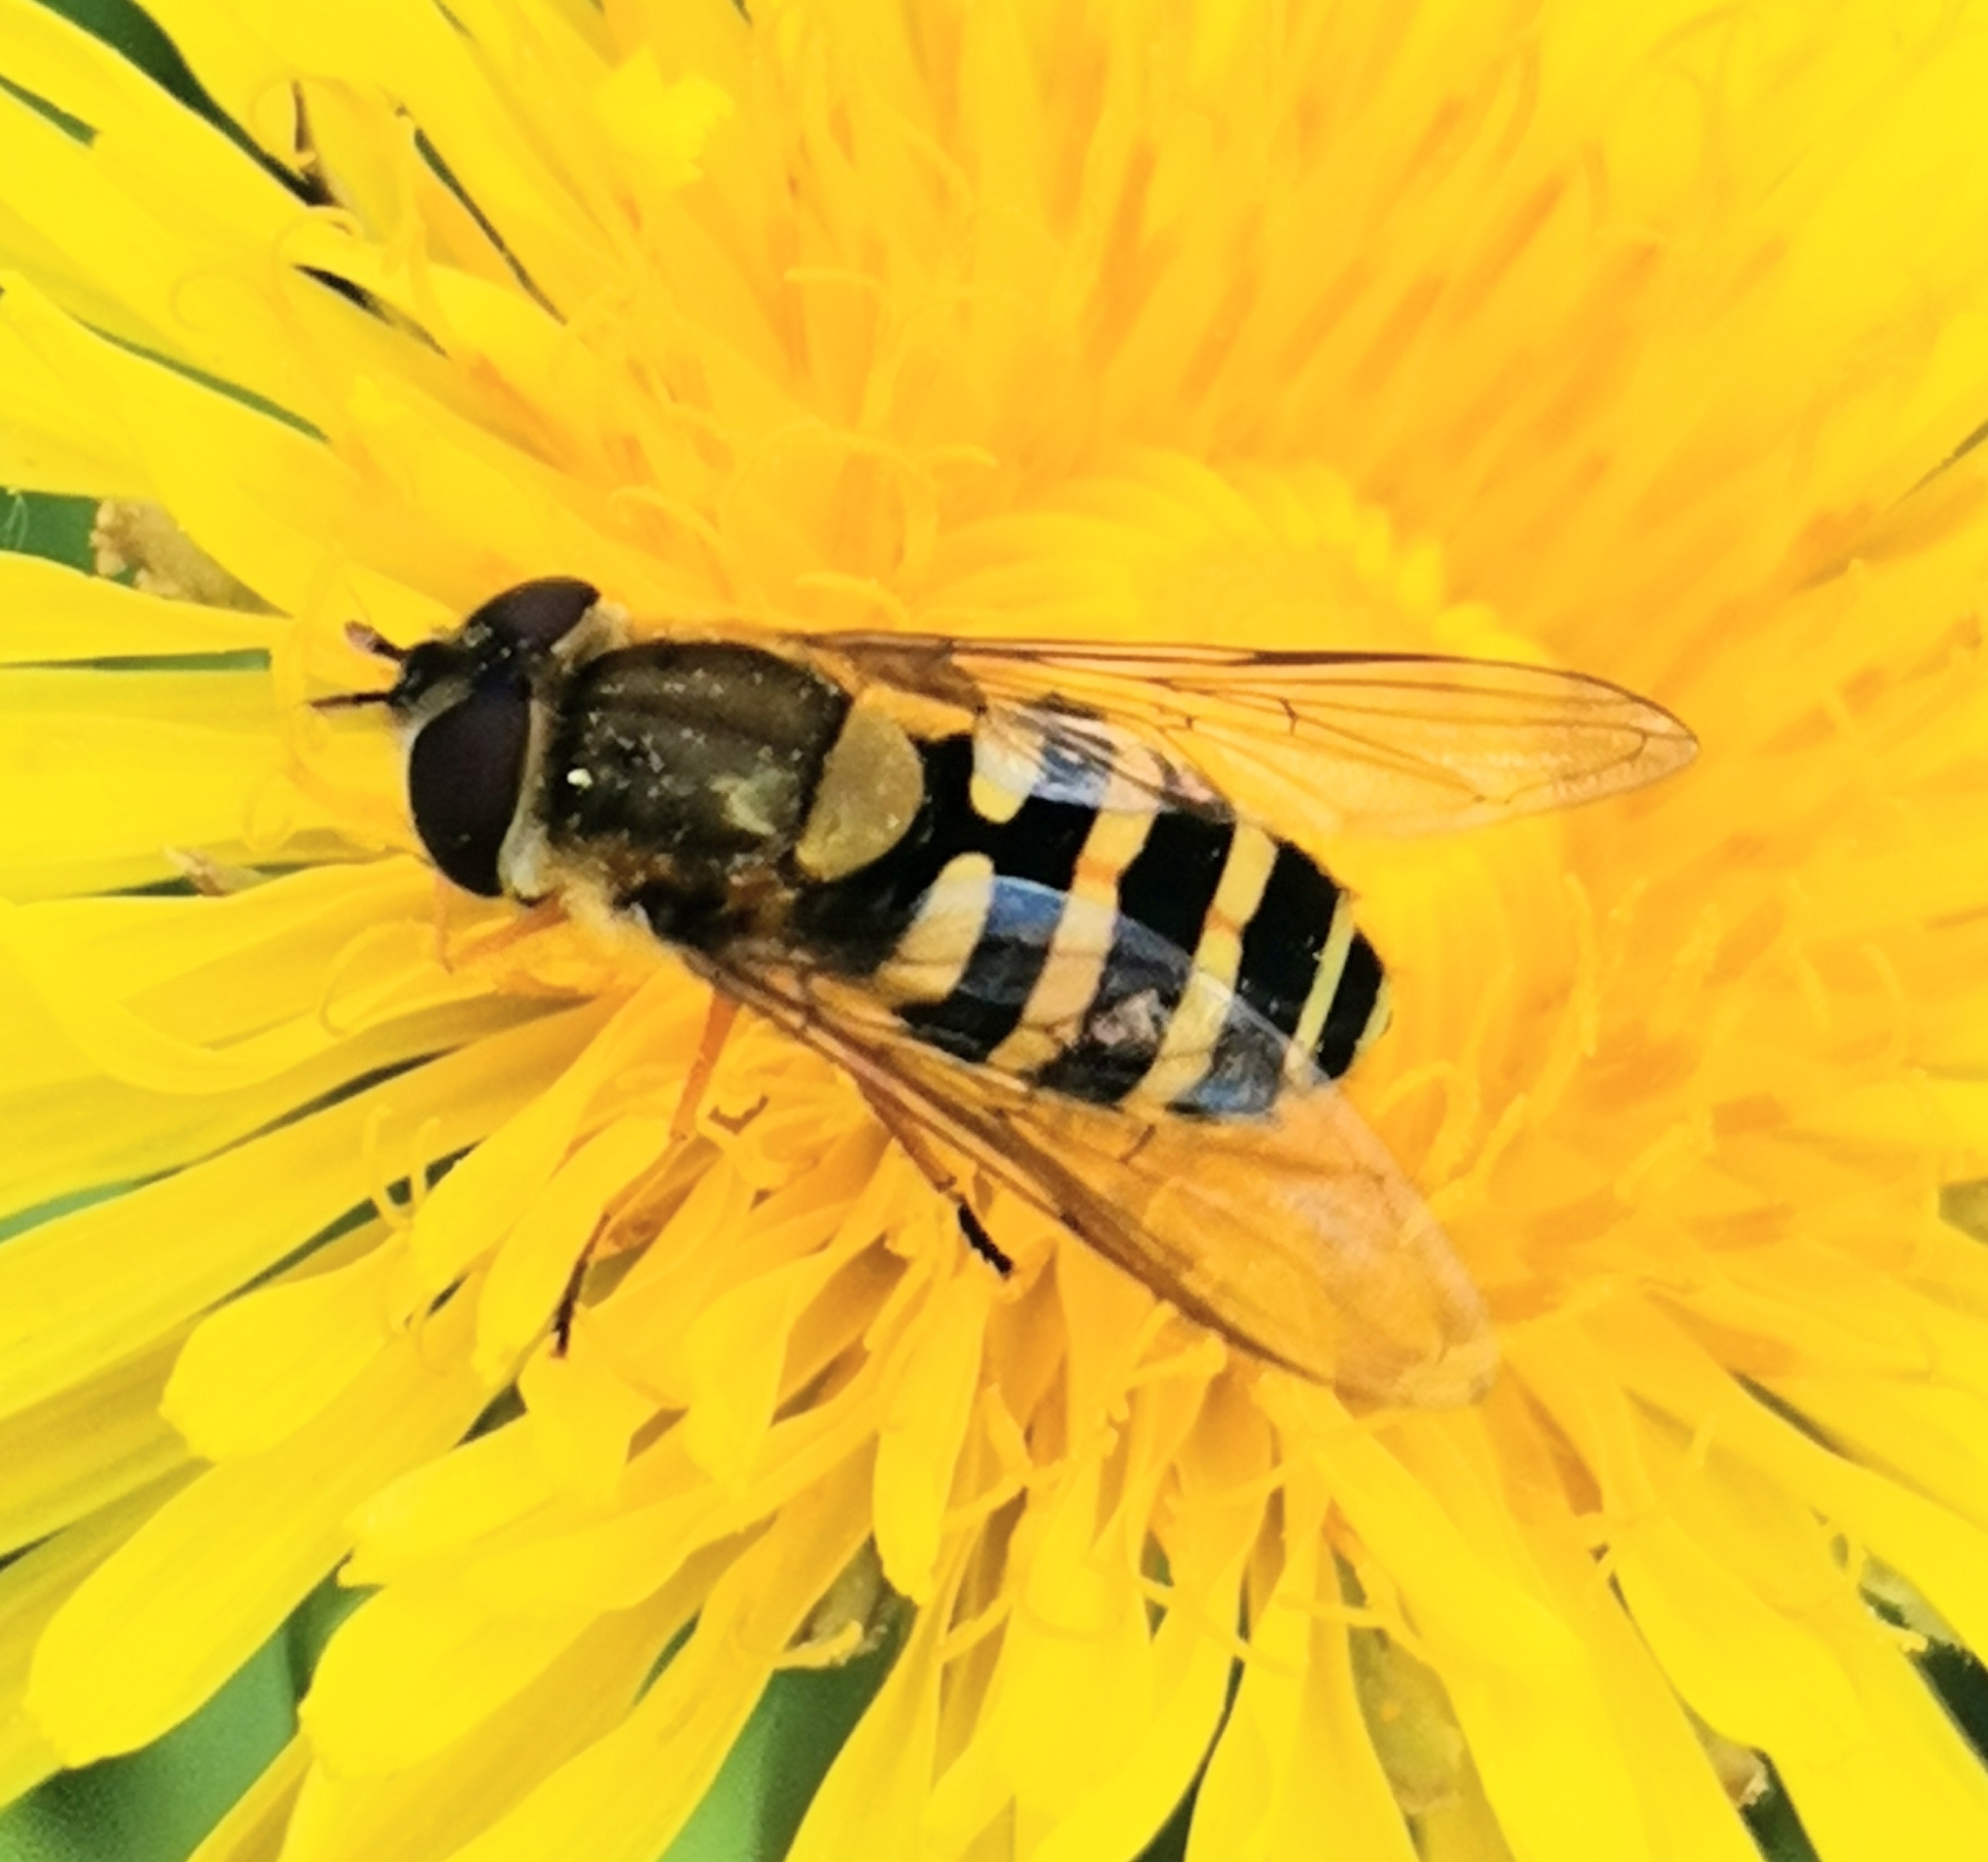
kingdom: Animalia
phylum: Arthropoda
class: Insecta
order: Diptera
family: Syrphidae
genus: Syrphus
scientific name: Syrphus
